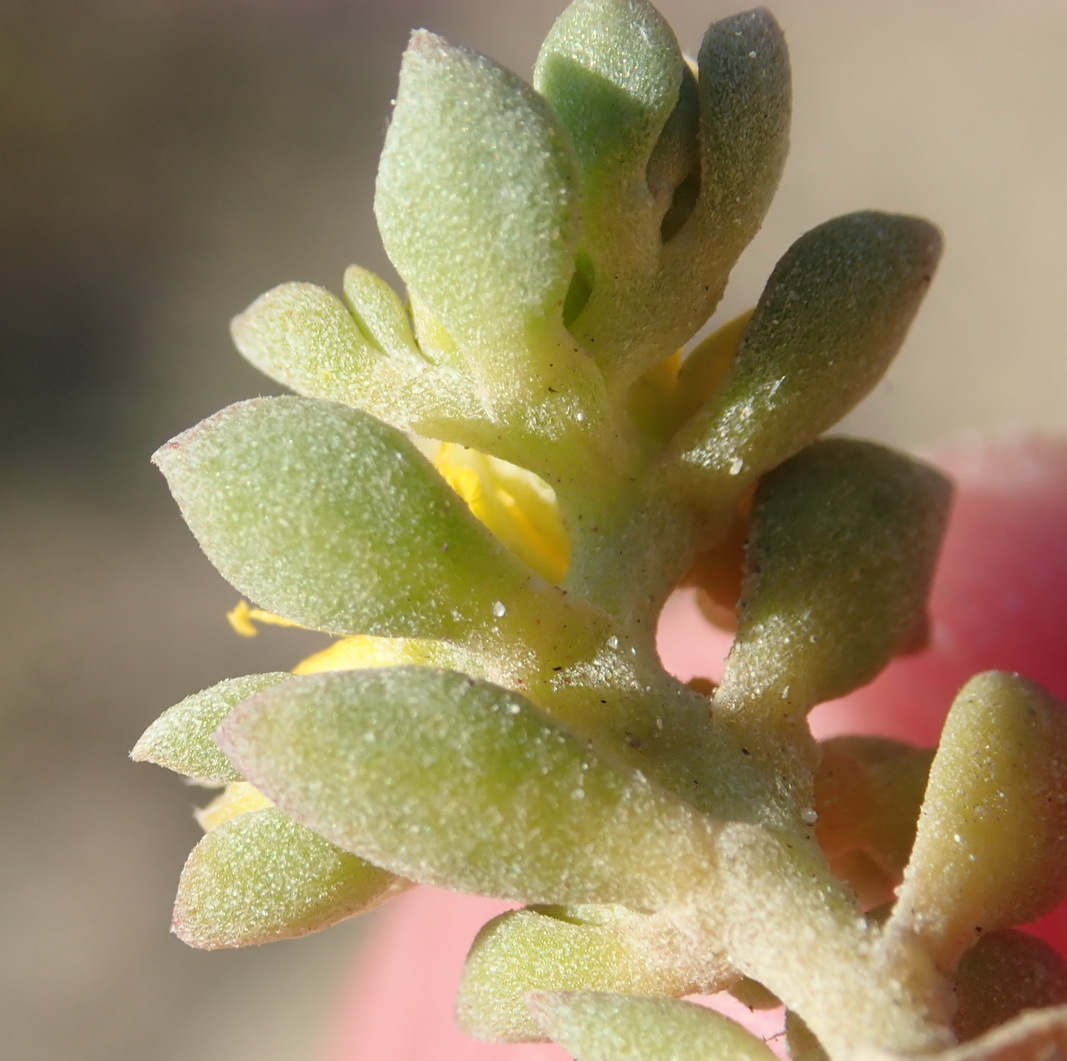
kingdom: Plantae
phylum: Tracheophyta
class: Magnoliopsida
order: Caryophyllales
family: Aizoaceae
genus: Aizoon
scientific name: Aizoon rigidum
